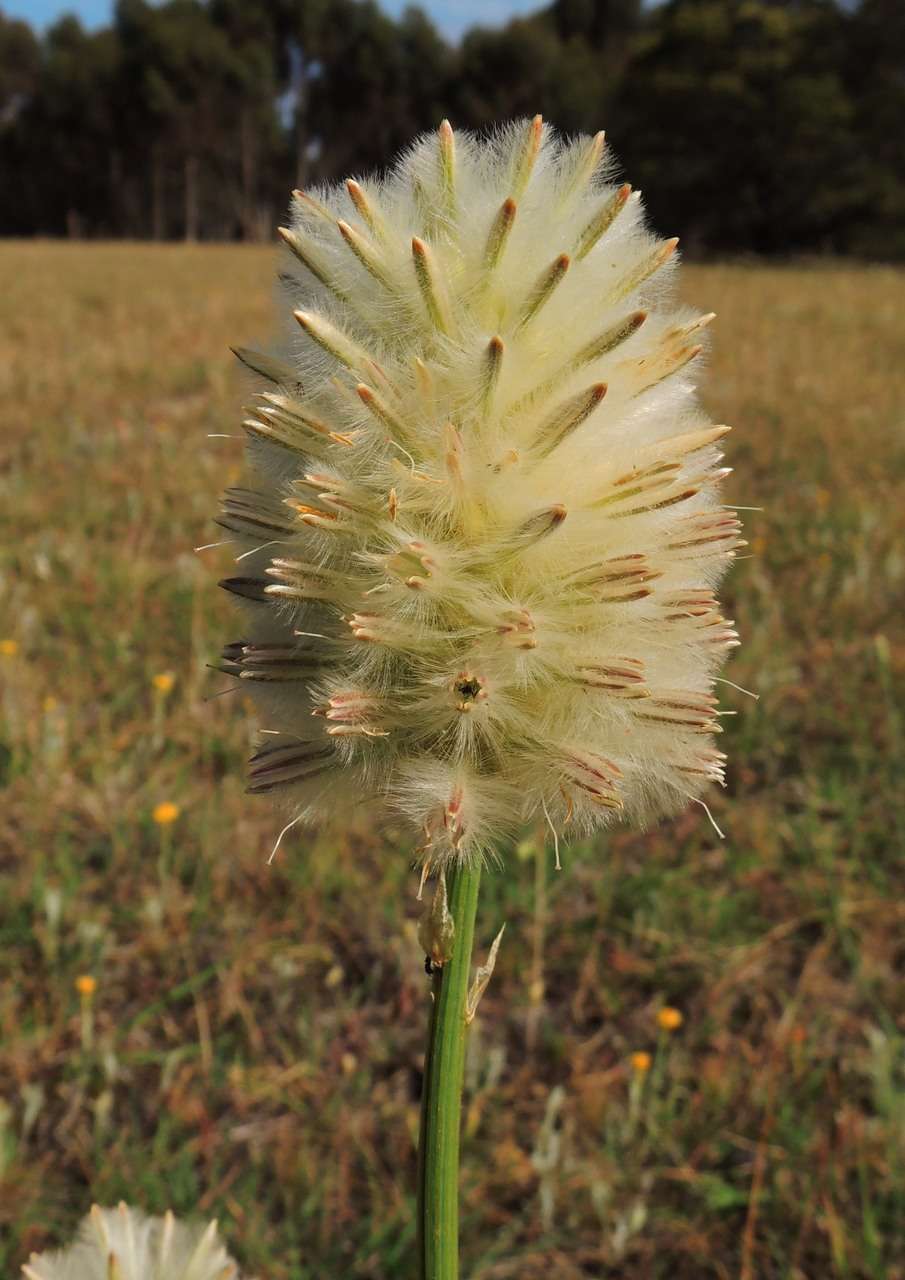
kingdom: Plantae
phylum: Tracheophyta
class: Magnoliopsida
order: Caryophyllales
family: Amaranthaceae
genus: Ptilotus
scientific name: Ptilotus macrocephalus
